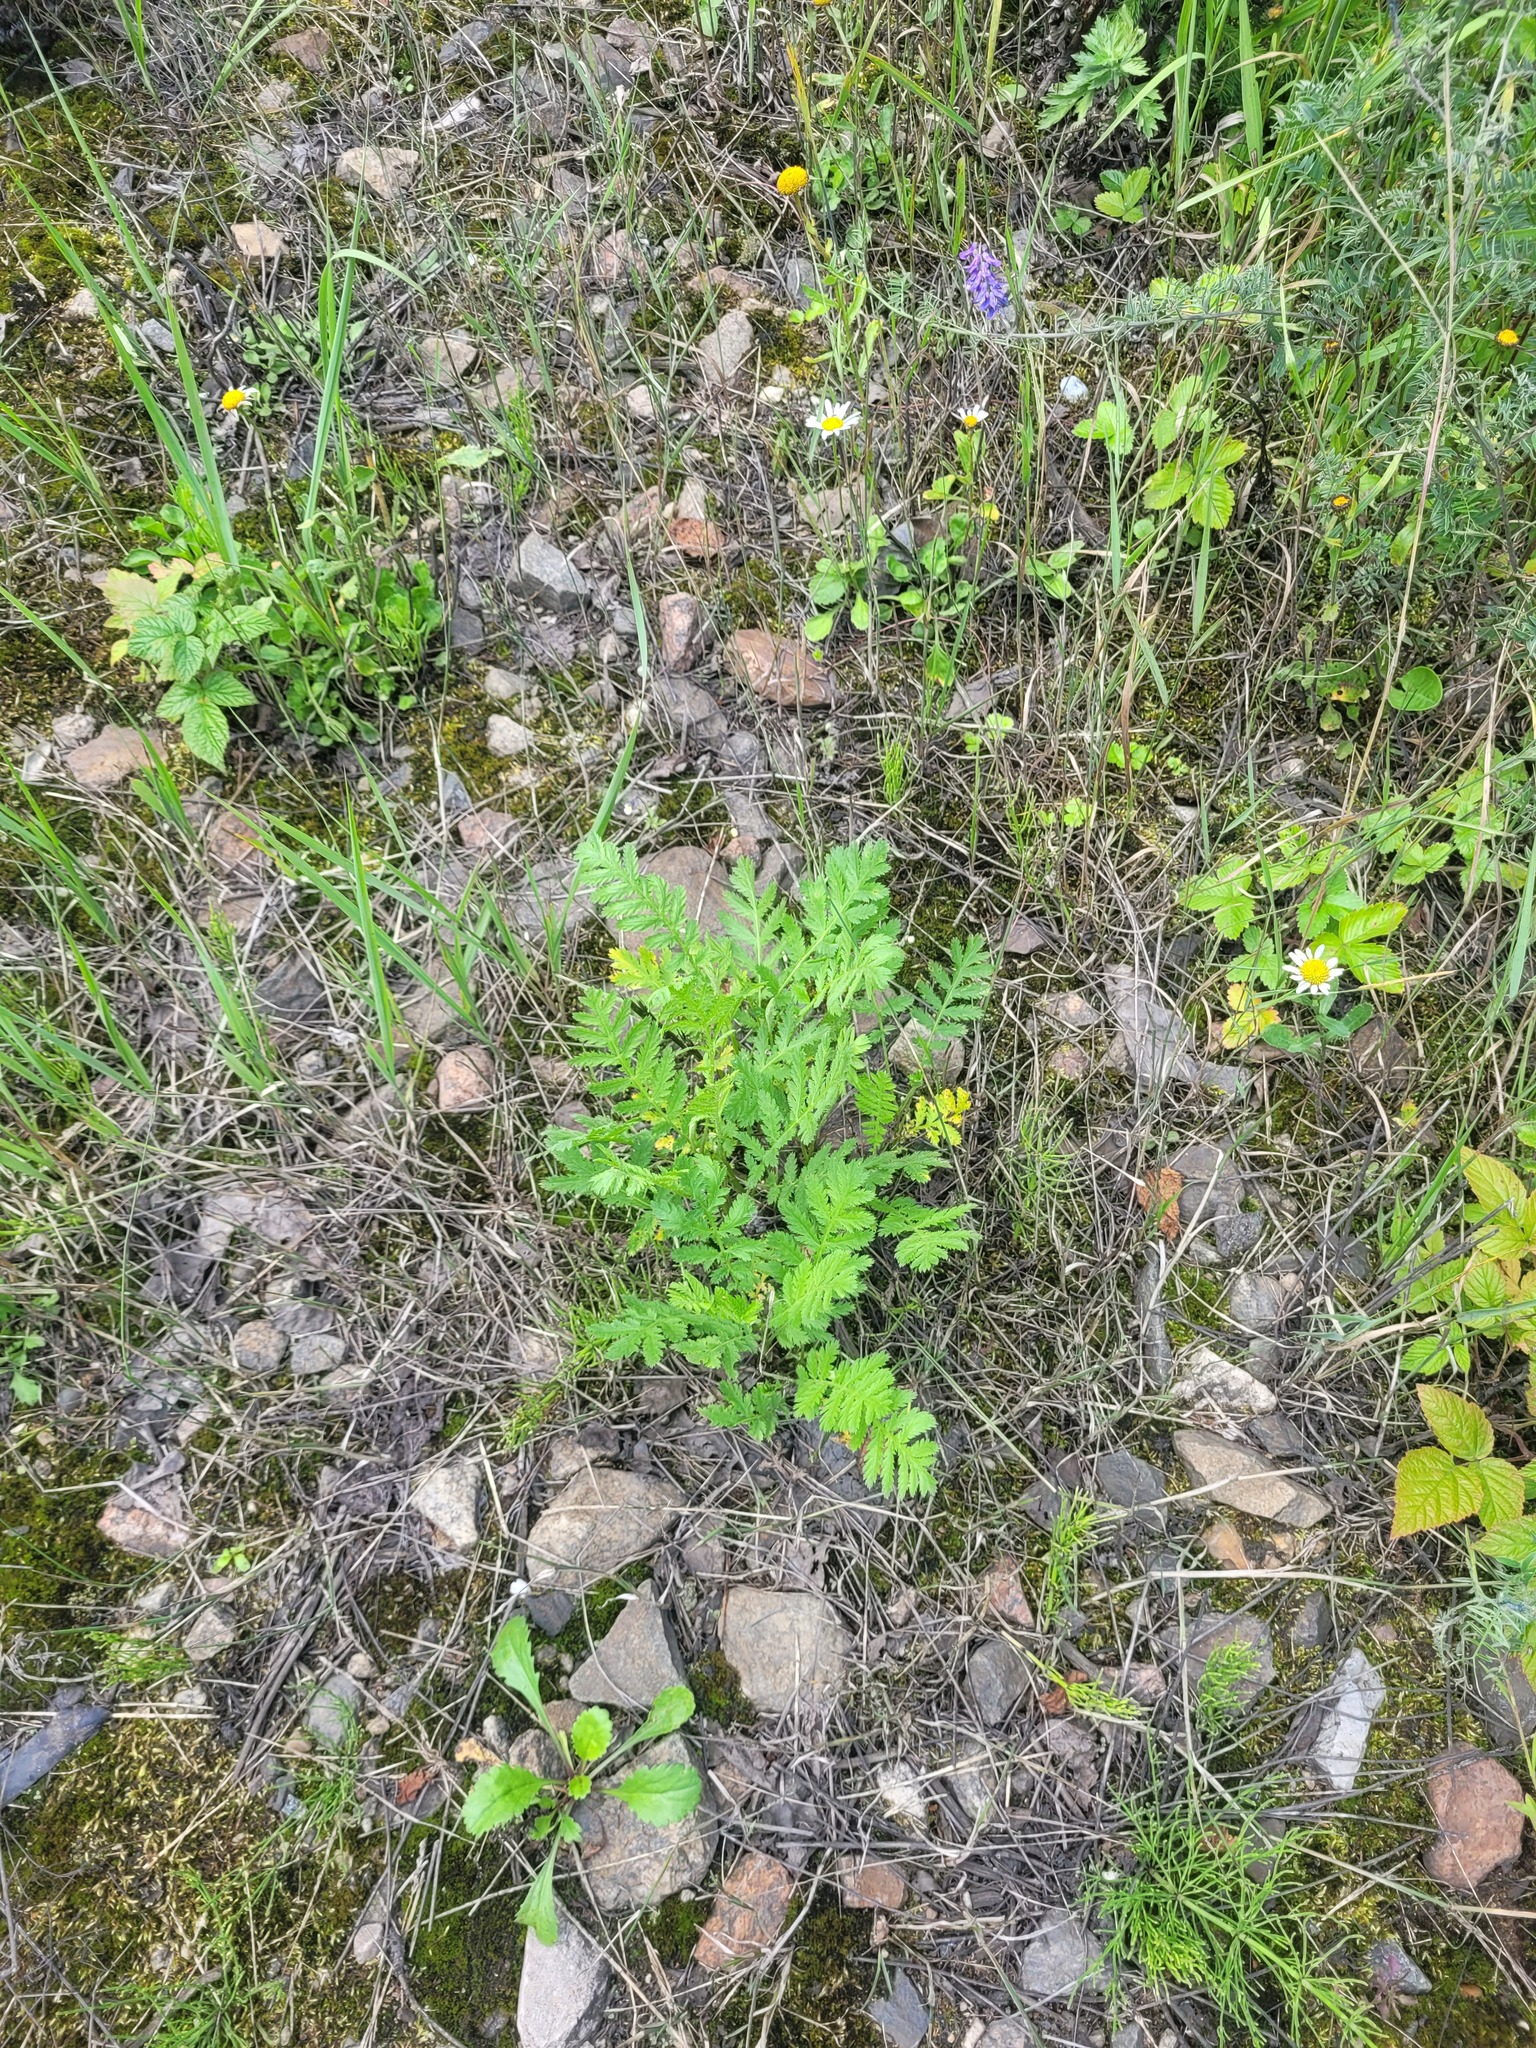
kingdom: Plantae
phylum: Tracheophyta
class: Magnoliopsida
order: Asterales
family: Asteraceae
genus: Tanacetum
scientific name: Tanacetum vulgare
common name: Common tansy
